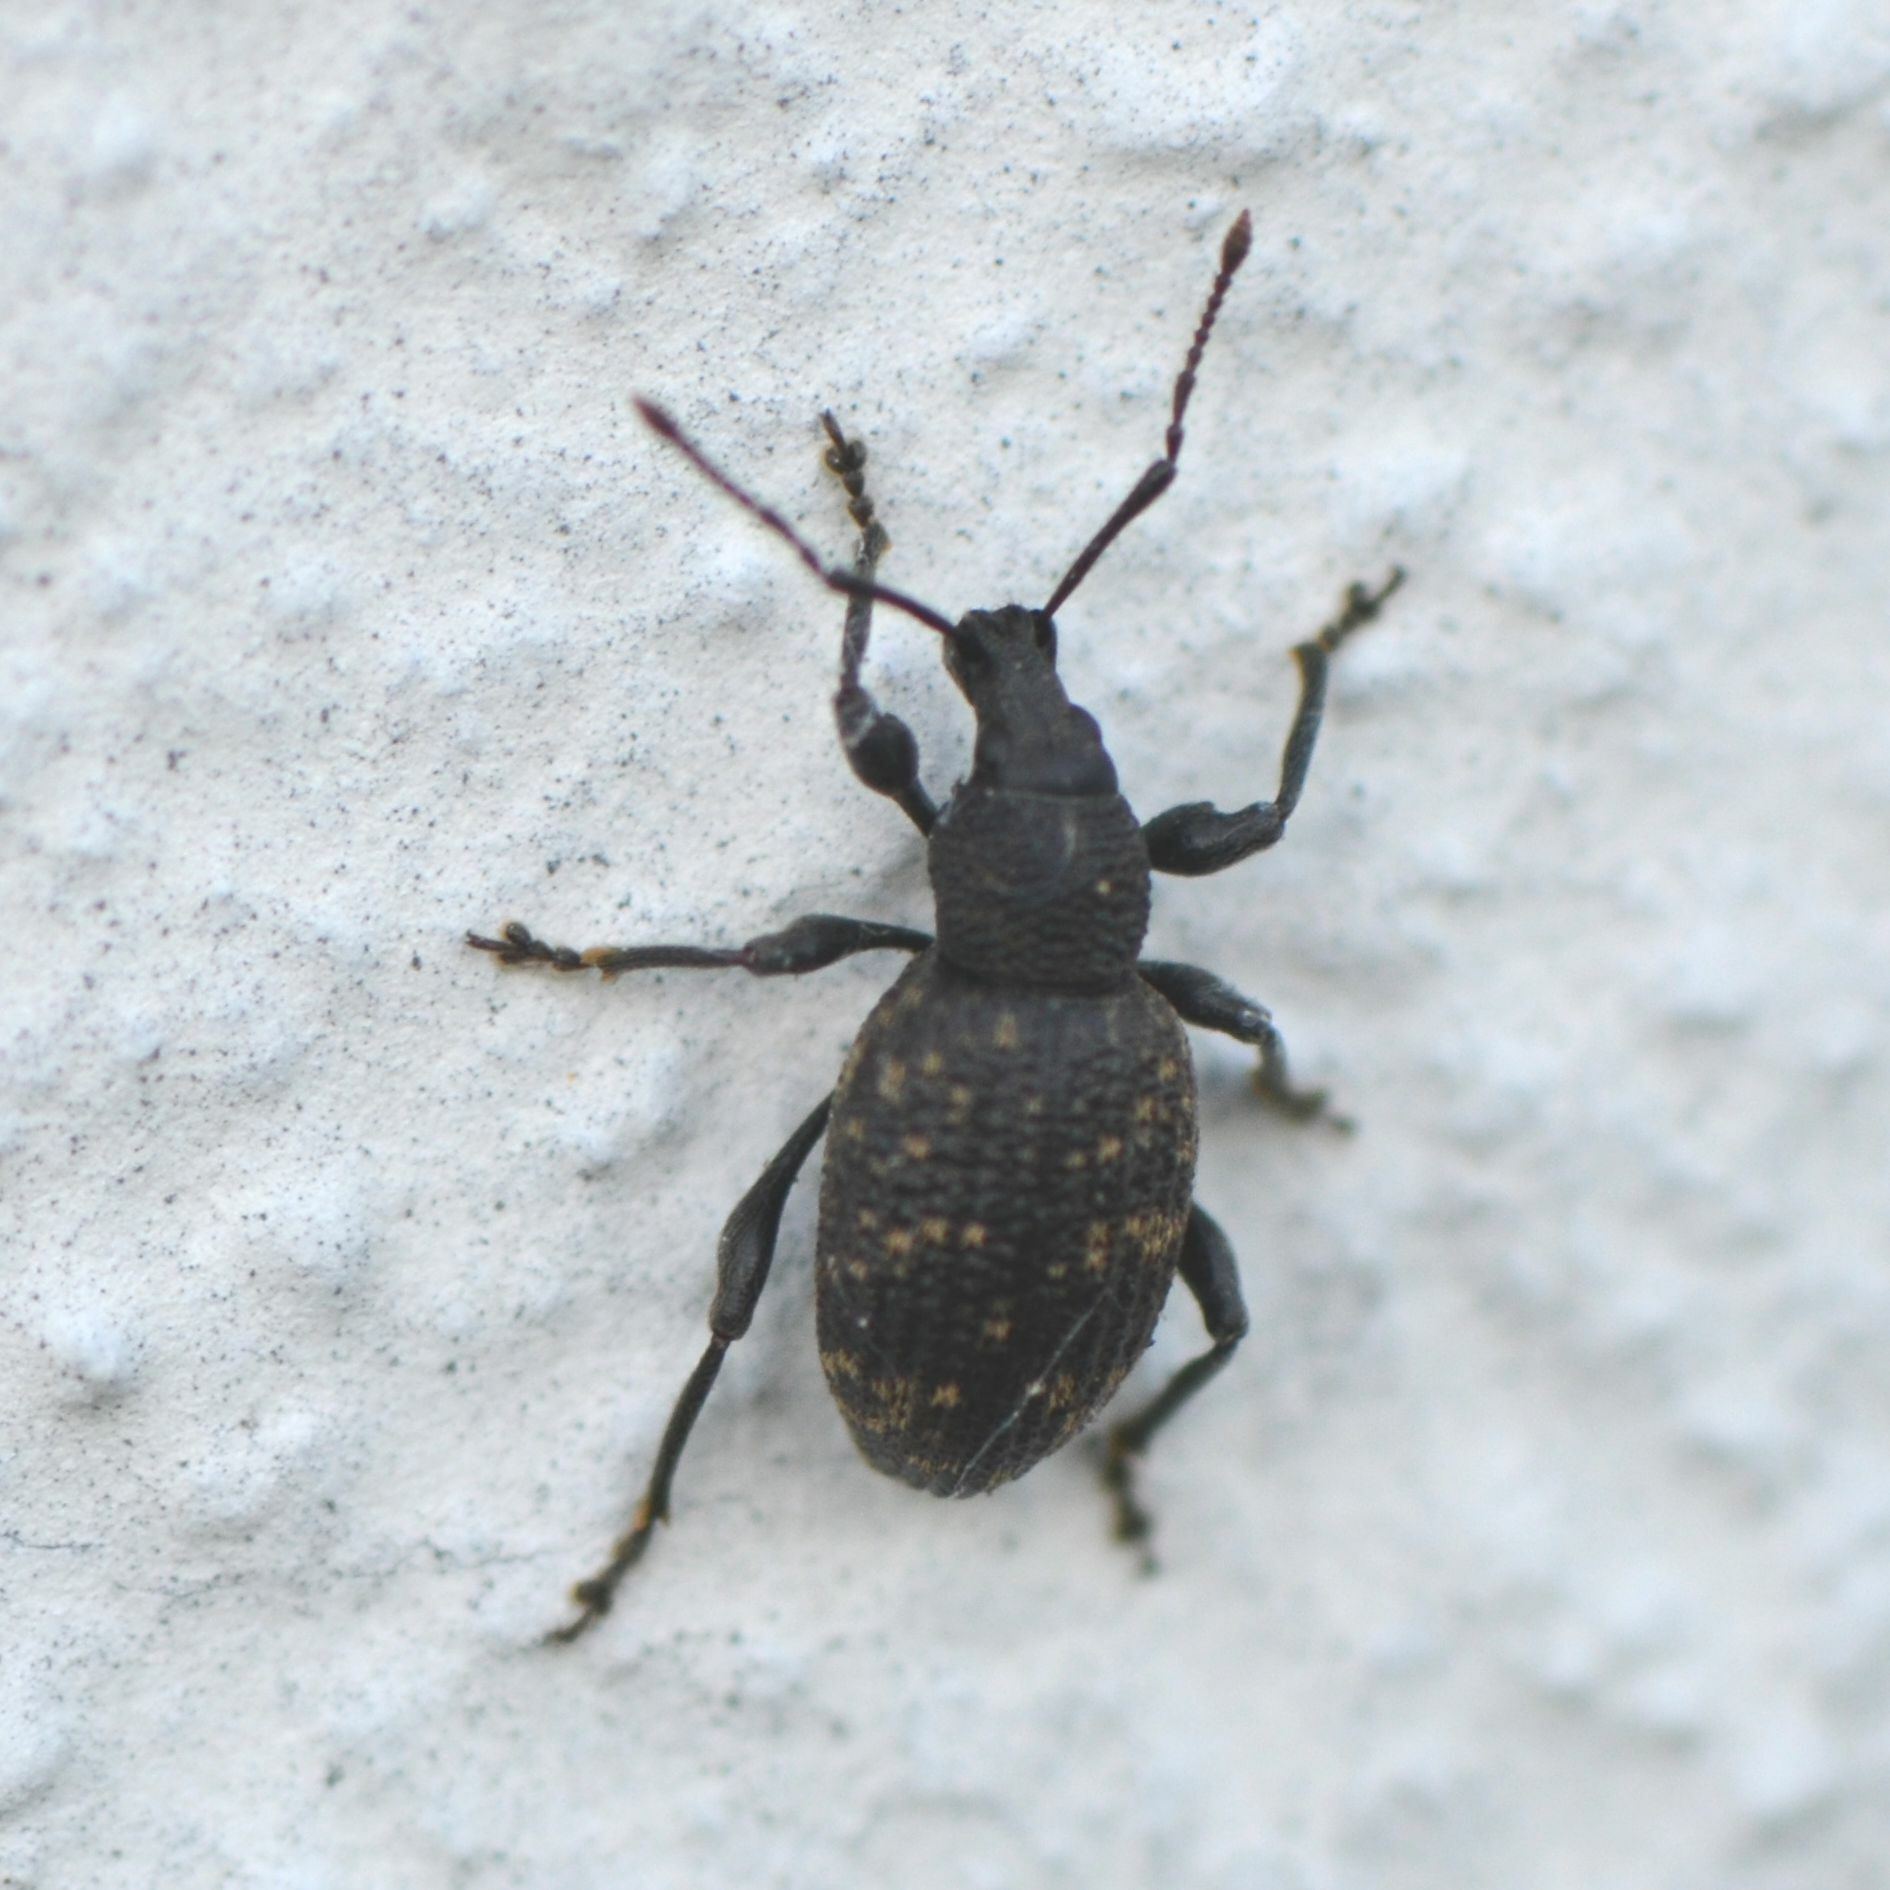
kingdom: Animalia
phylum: Arthropoda
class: Insecta
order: Coleoptera
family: Curculionidae
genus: Otiorhynchus
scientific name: Otiorhynchus sulcatus
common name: Black vine weevil
